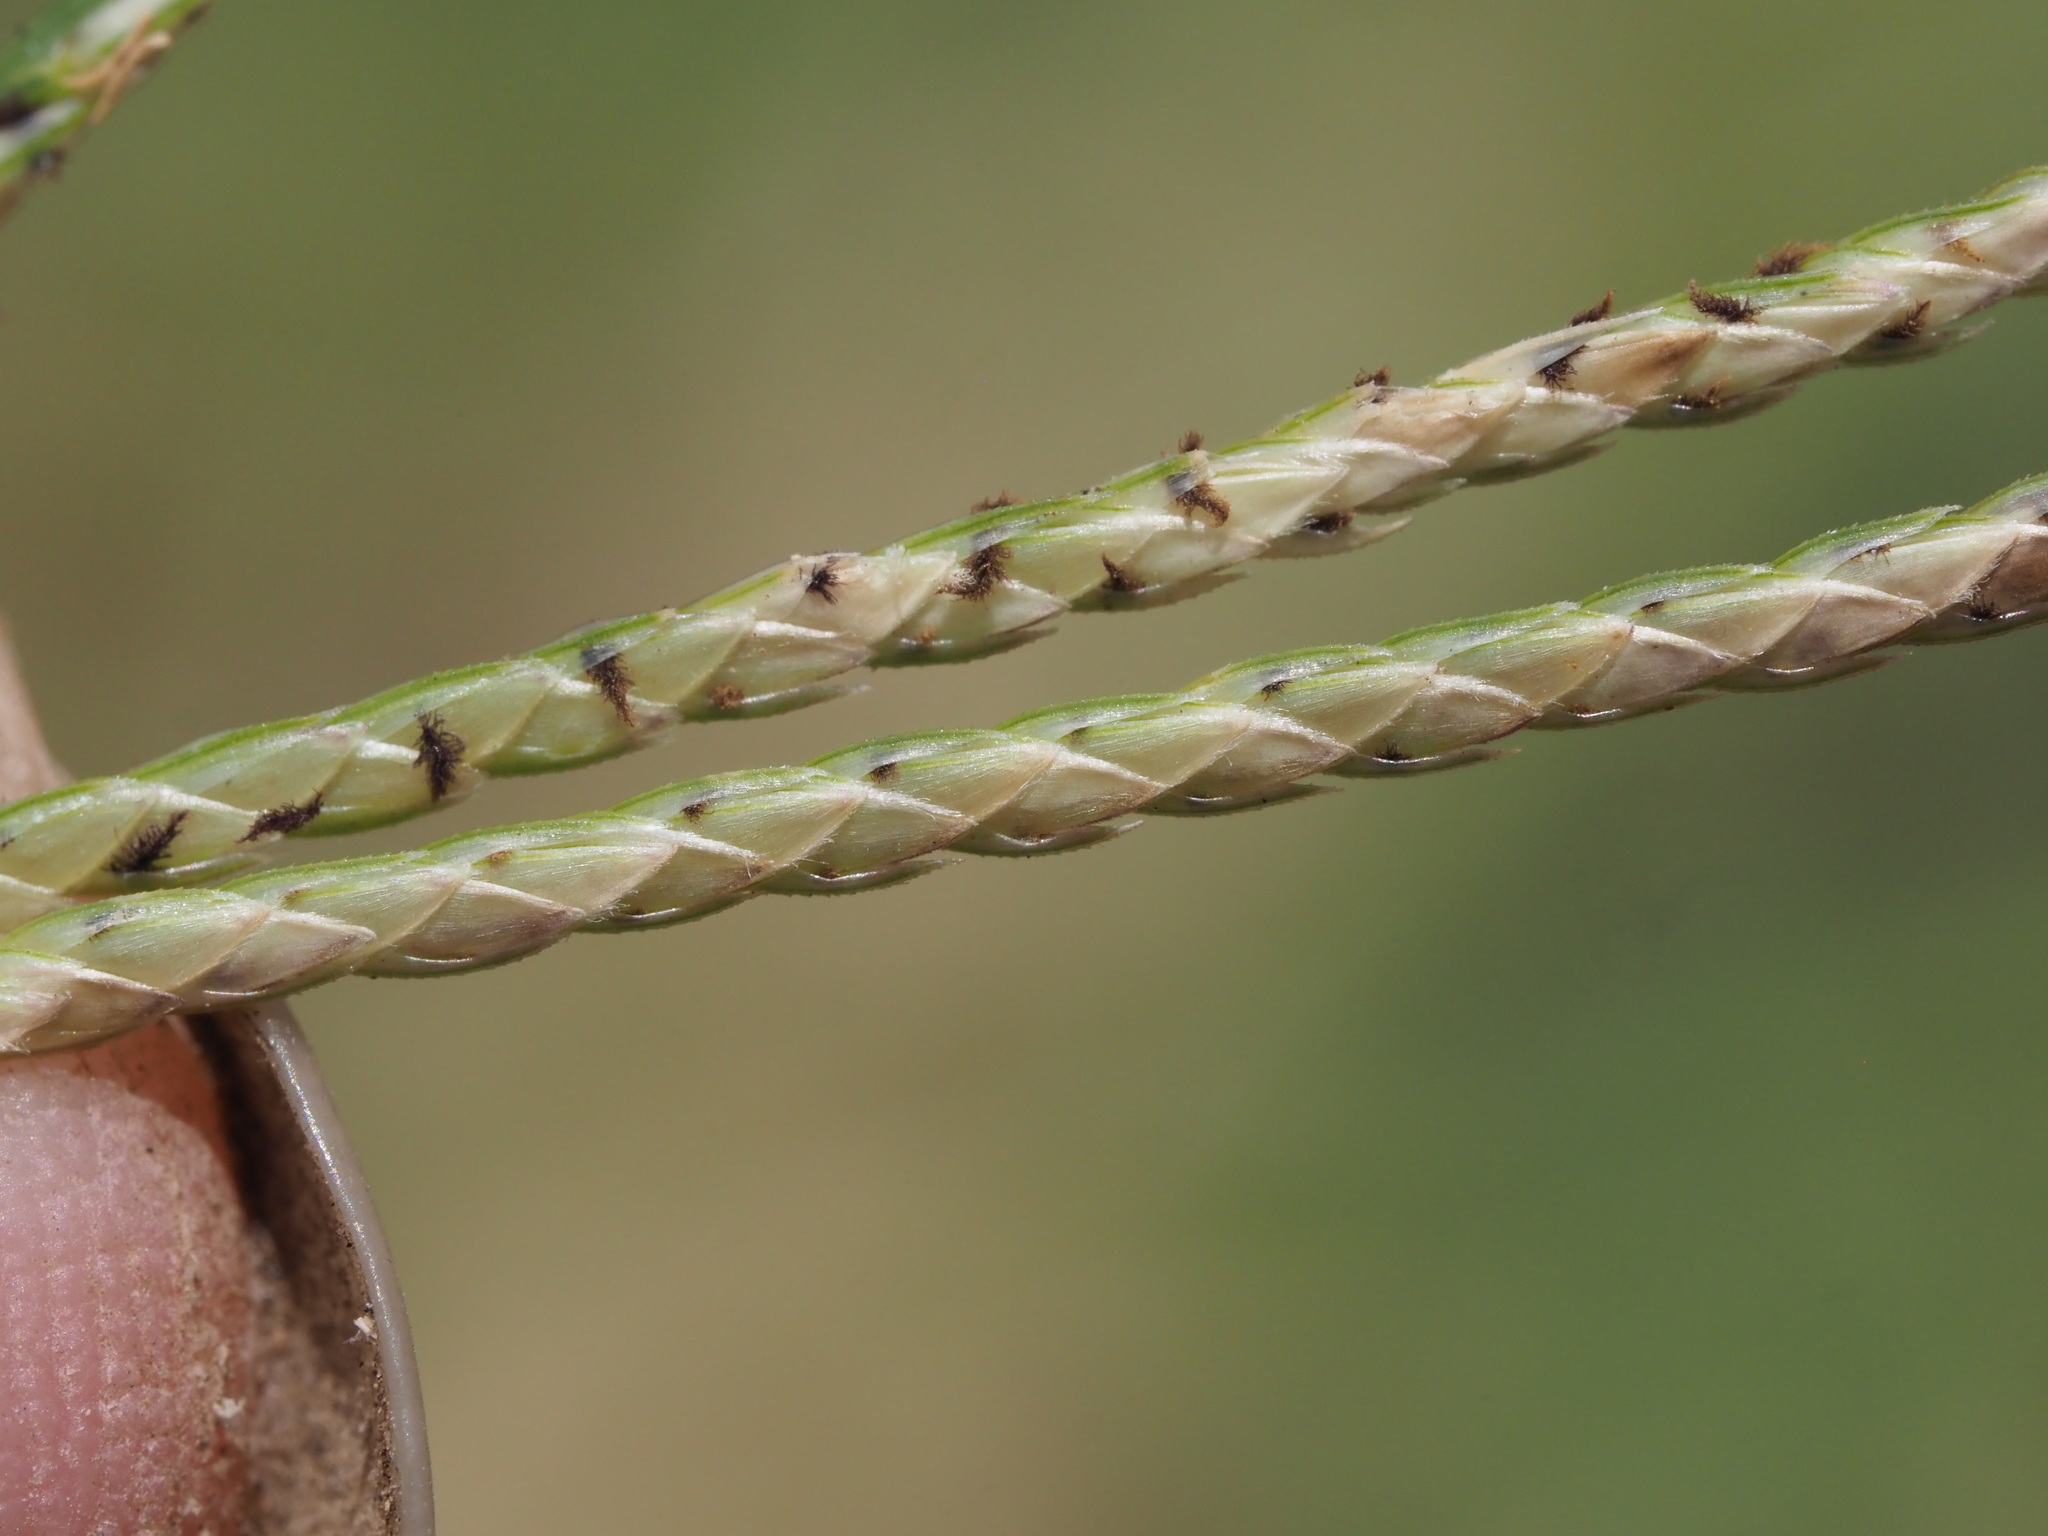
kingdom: Plantae
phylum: Tracheophyta
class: Liliopsida
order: Poales
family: Poaceae
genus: Cynodon
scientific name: Cynodon nlemfuensis
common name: African bermudagrass
